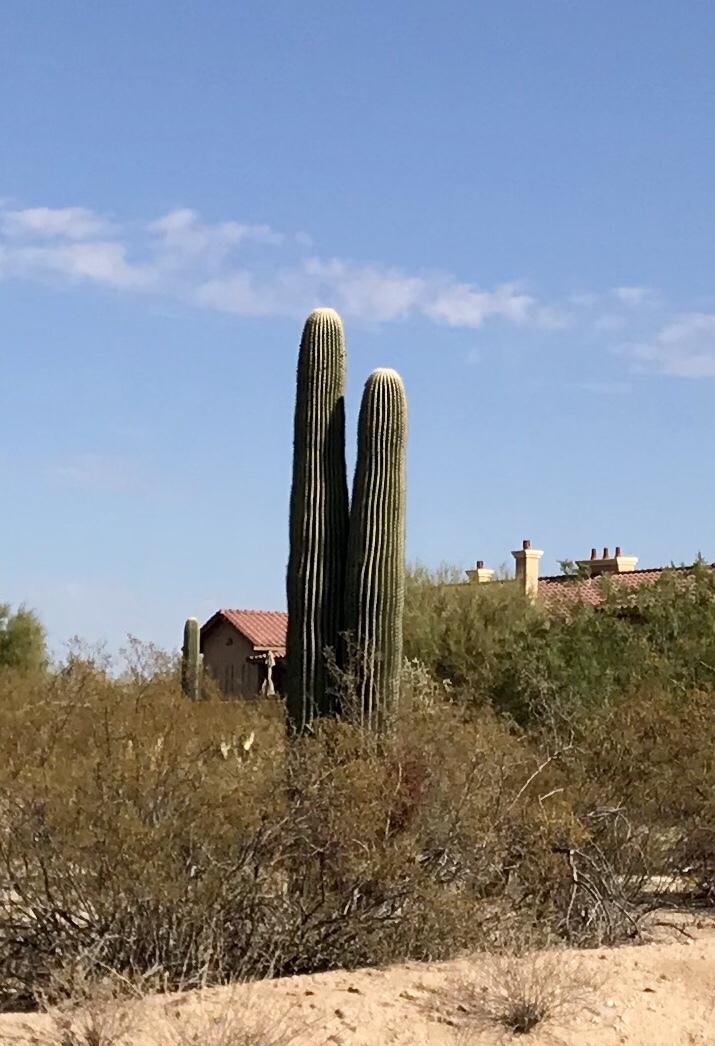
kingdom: Plantae
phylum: Tracheophyta
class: Magnoliopsida
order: Caryophyllales
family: Cactaceae
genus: Carnegiea
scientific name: Carnegiea gigantea
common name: Saguaro
